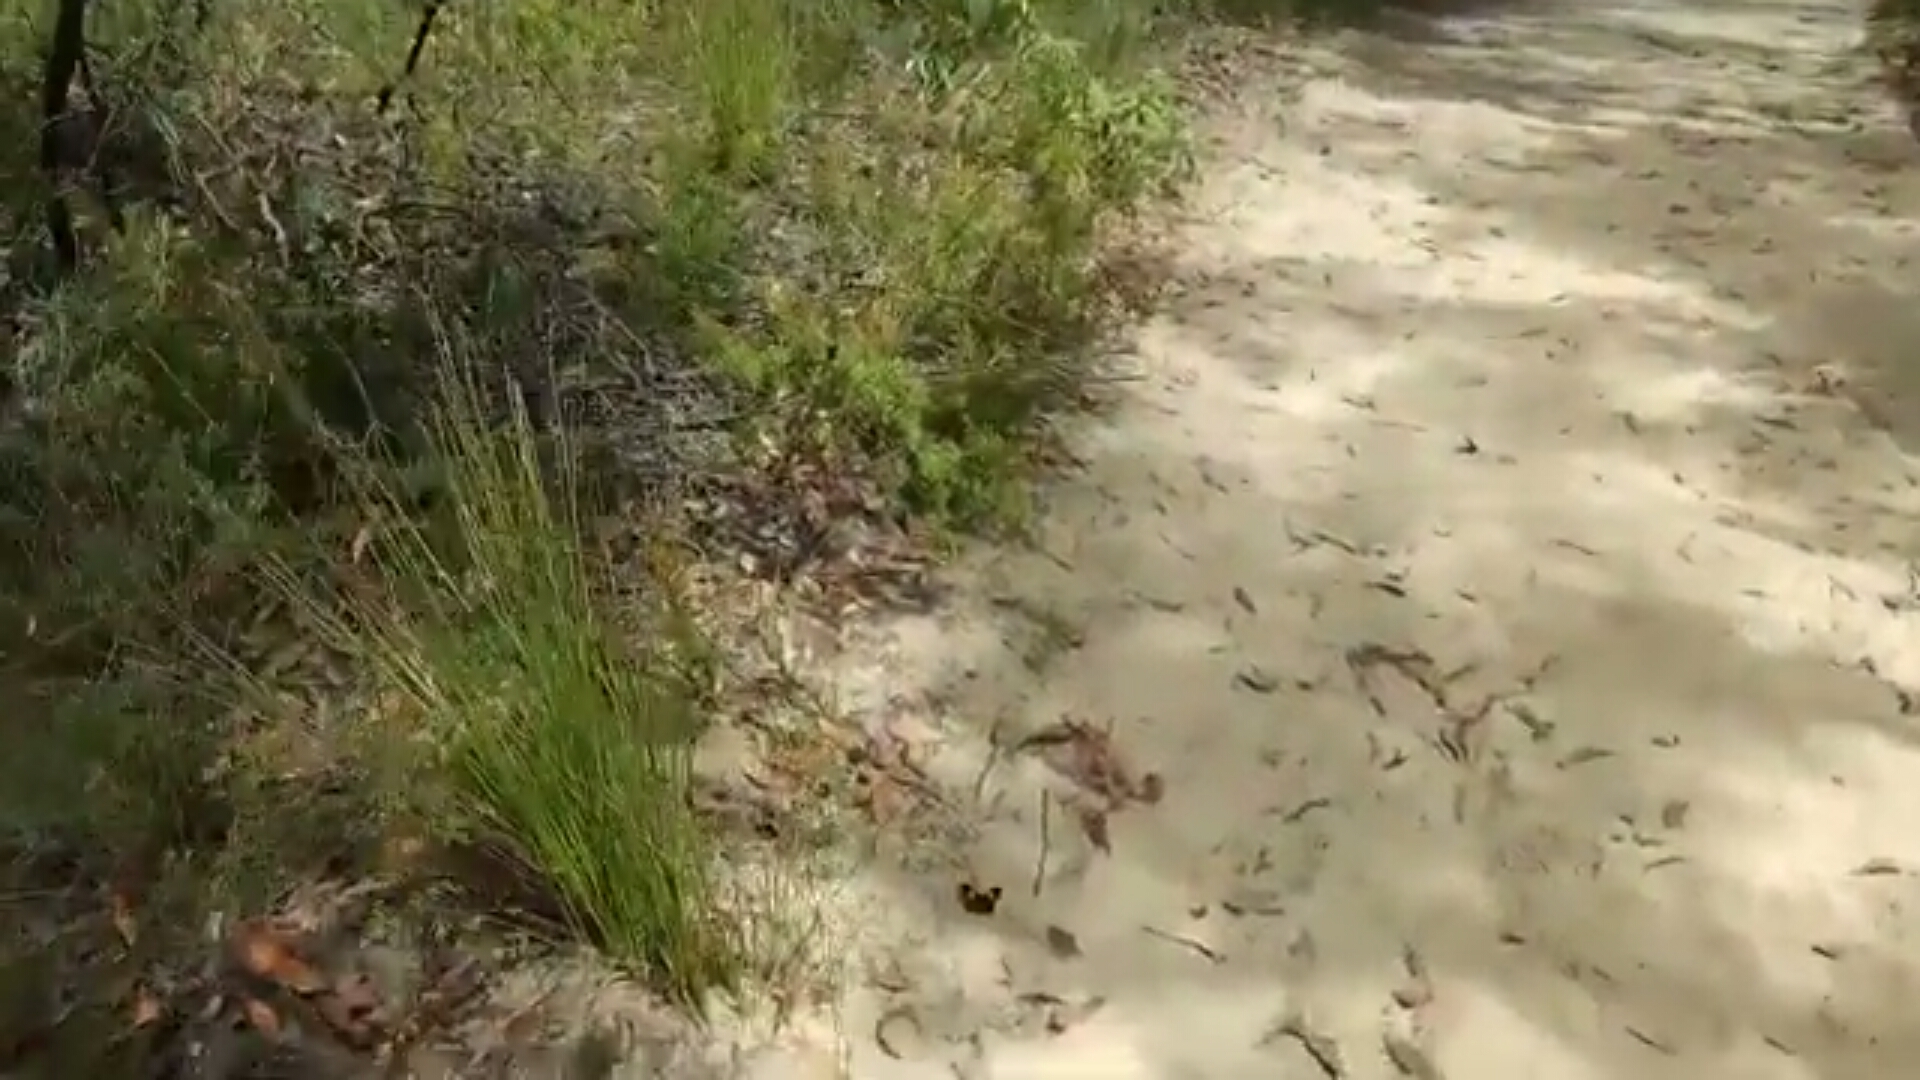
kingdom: Animalia
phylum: Arthropoda
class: Insecta
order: Lepidoptera
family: Nymphalidae
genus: Tisiphone
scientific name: Tisiphone abeona
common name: Swordgrass brown
